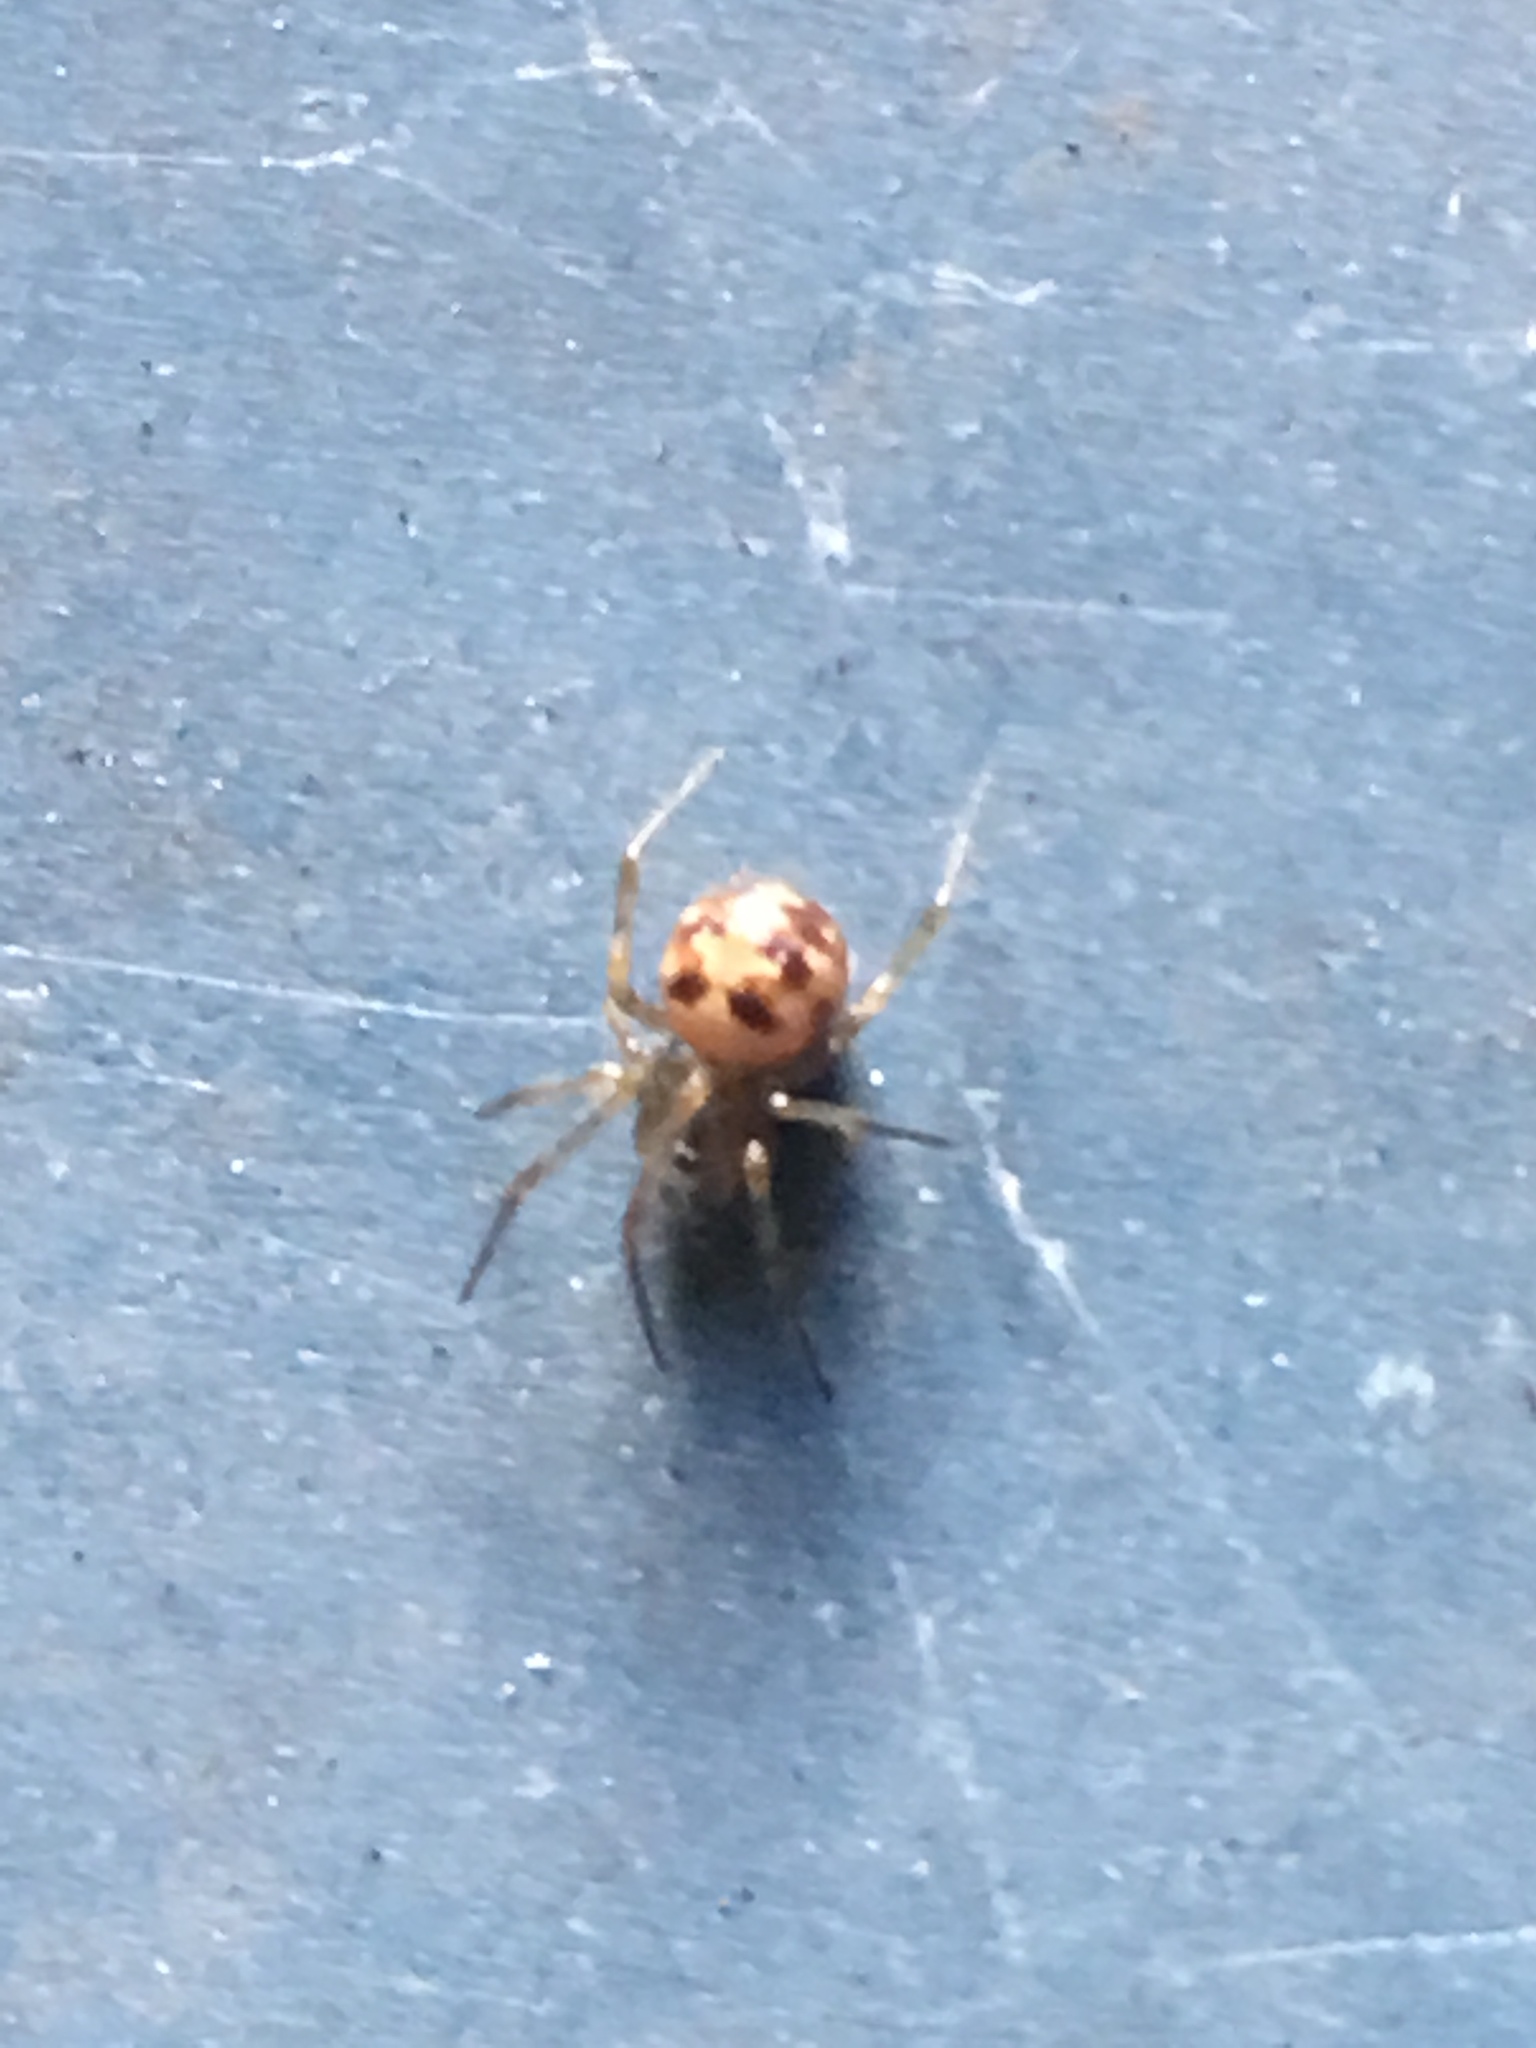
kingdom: Animalia
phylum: Arthropoda
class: Arachnida
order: Araneae
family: Theridiidae
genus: Steatoda
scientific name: Steatoda triangulosa
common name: Triangulate bud spider
